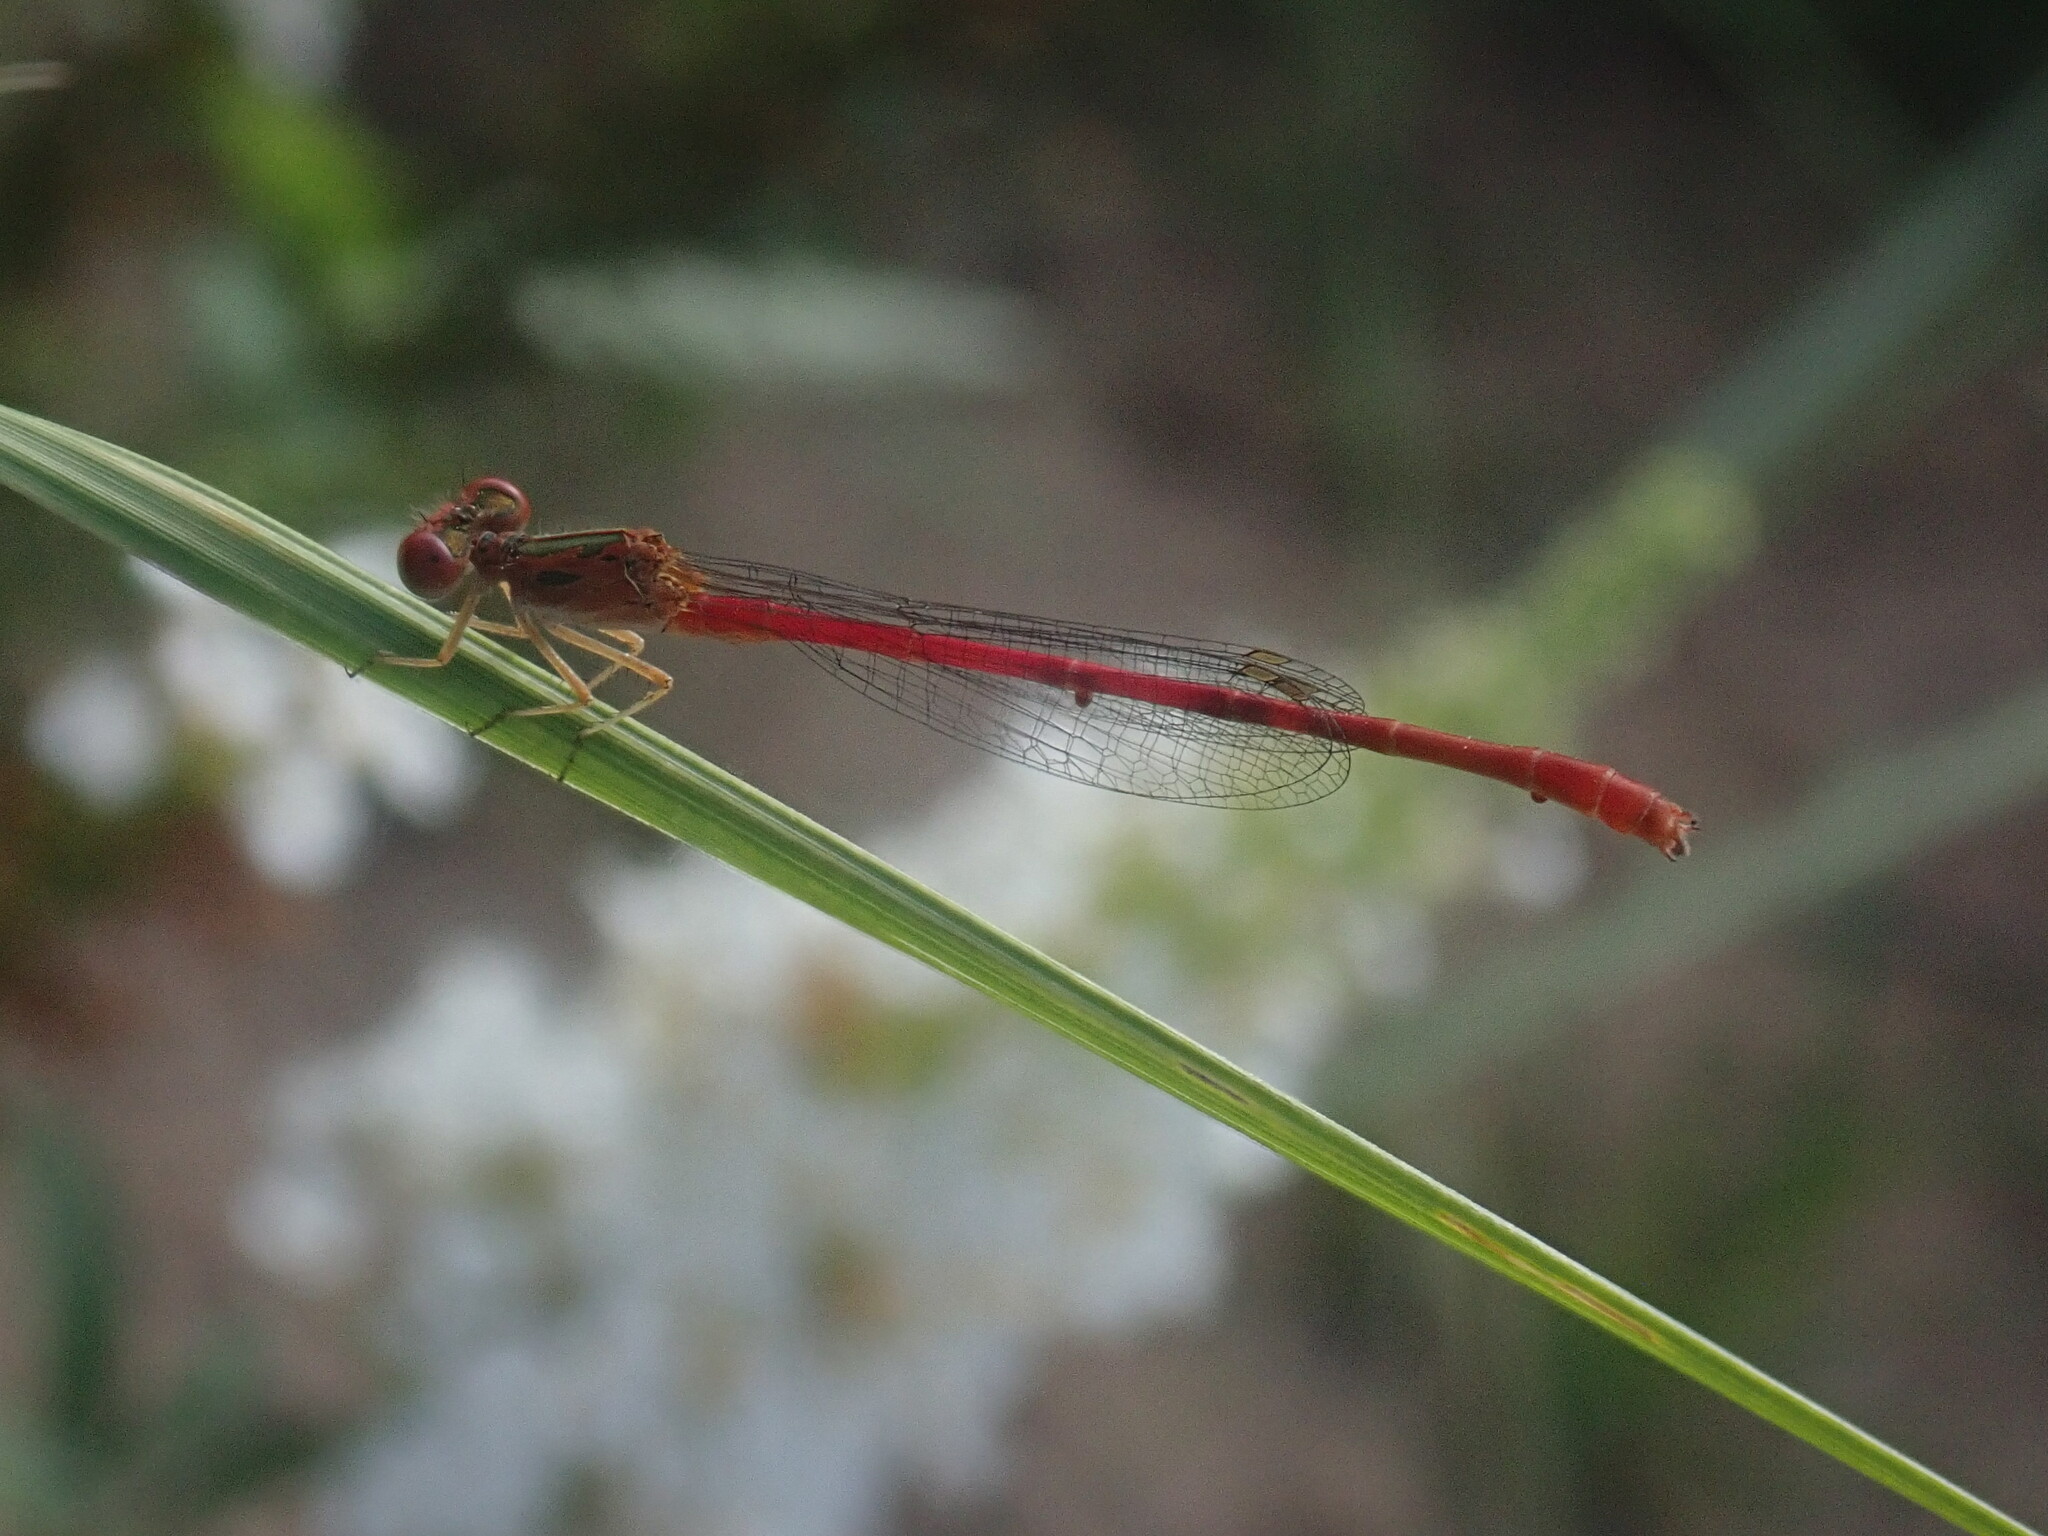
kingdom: Animalia
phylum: Arthropoda
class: Insecta
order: Odonata
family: Coenagrionidae
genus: Telebasis
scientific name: Telebasis salva
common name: Desert firetail
